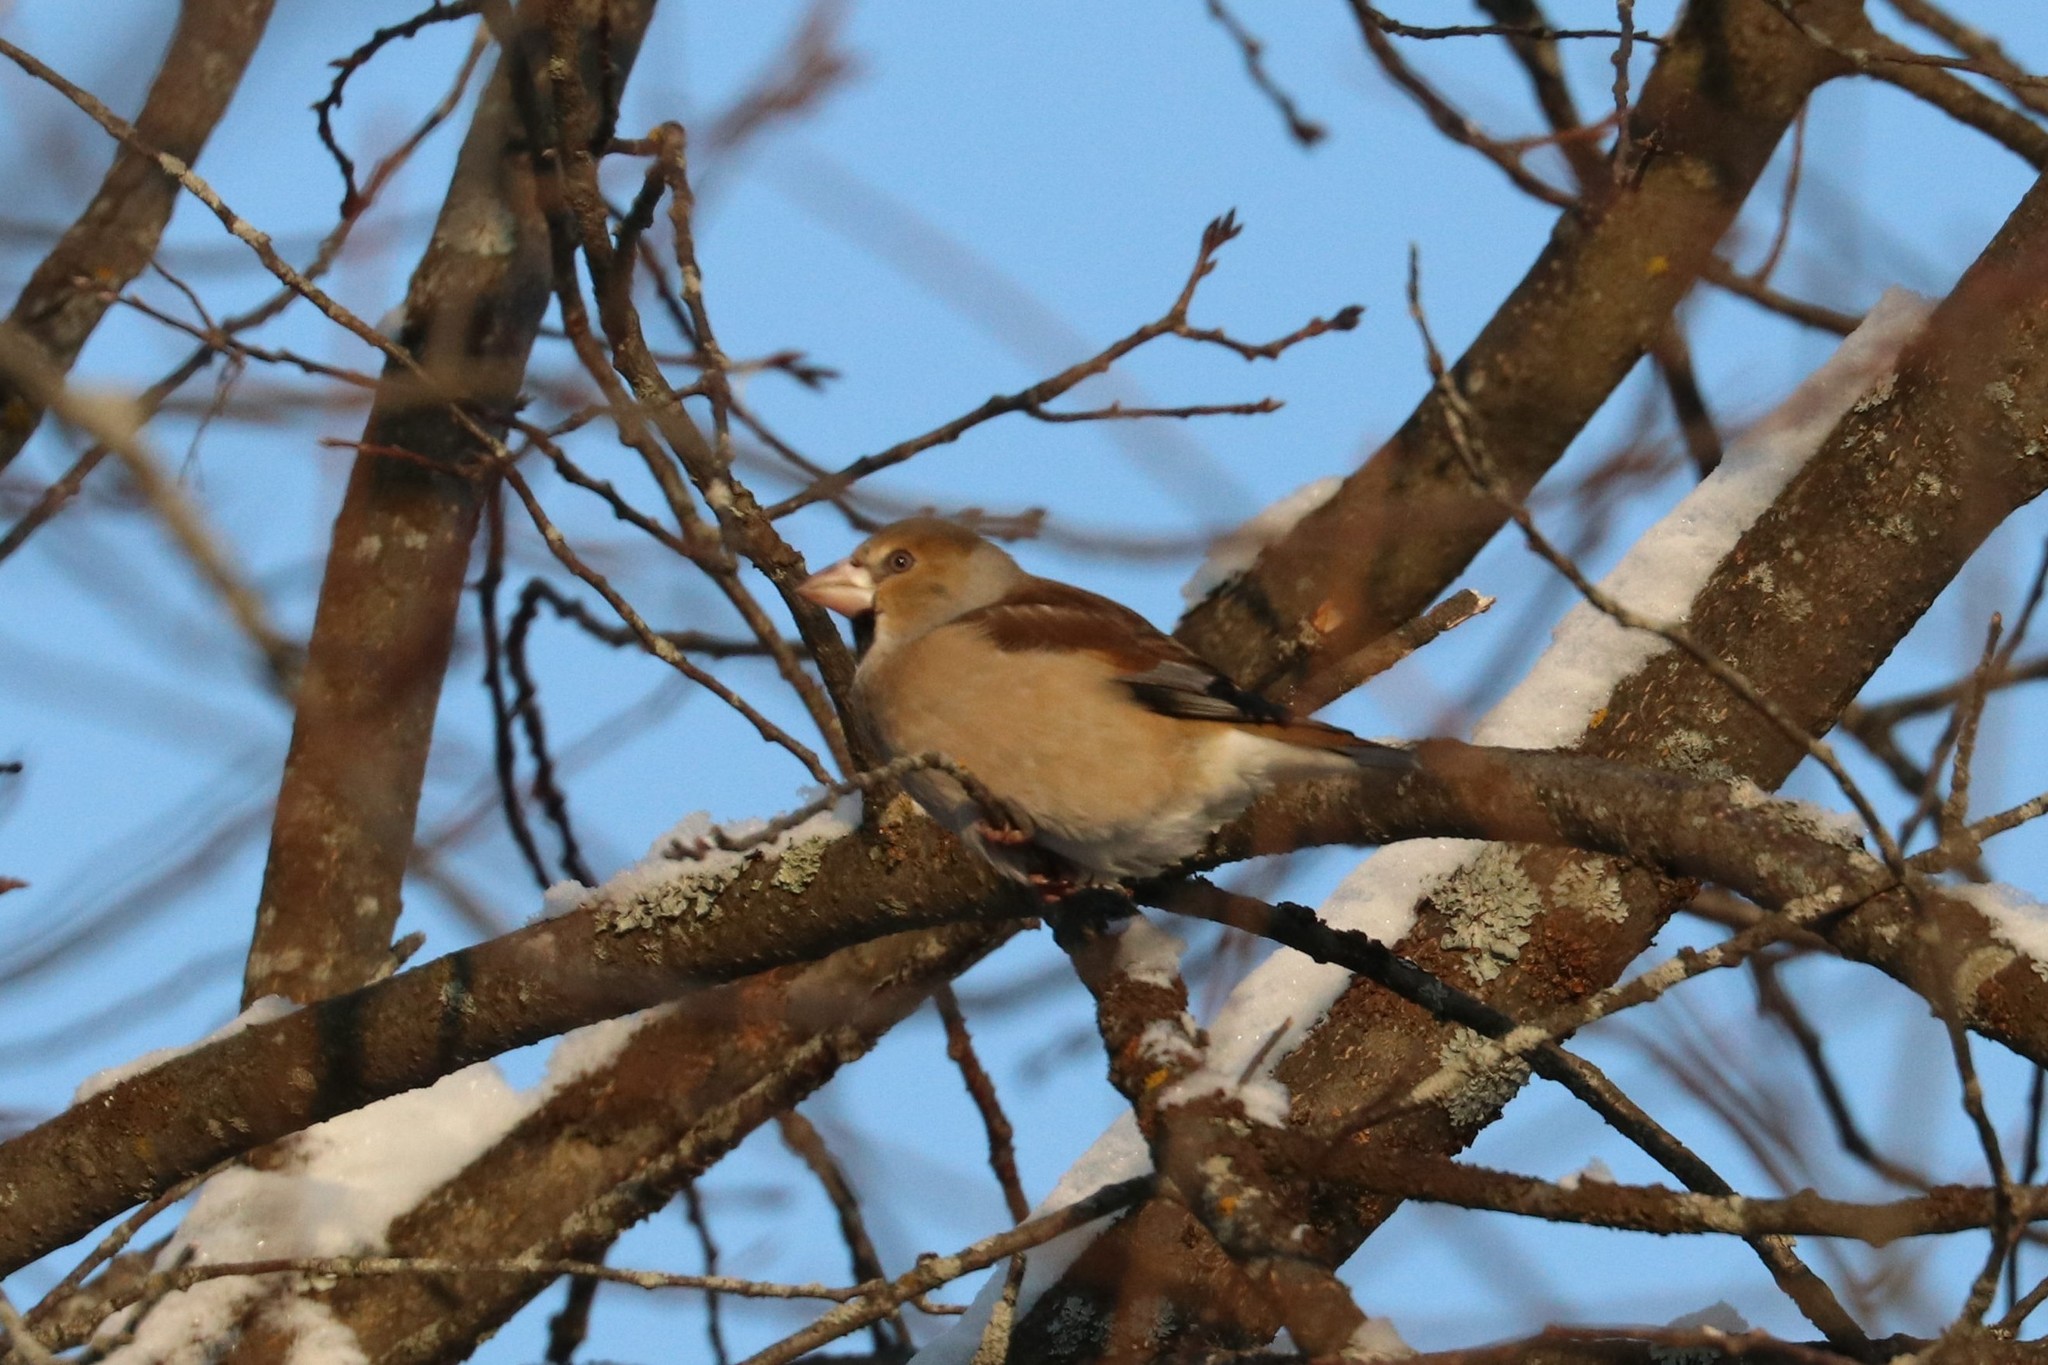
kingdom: Animalia
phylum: Chordata
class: Aves
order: Passeriformes
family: Fringillidae
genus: Coccothraustes
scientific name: Coccothraustes coccothraustes
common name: Hawfinch
